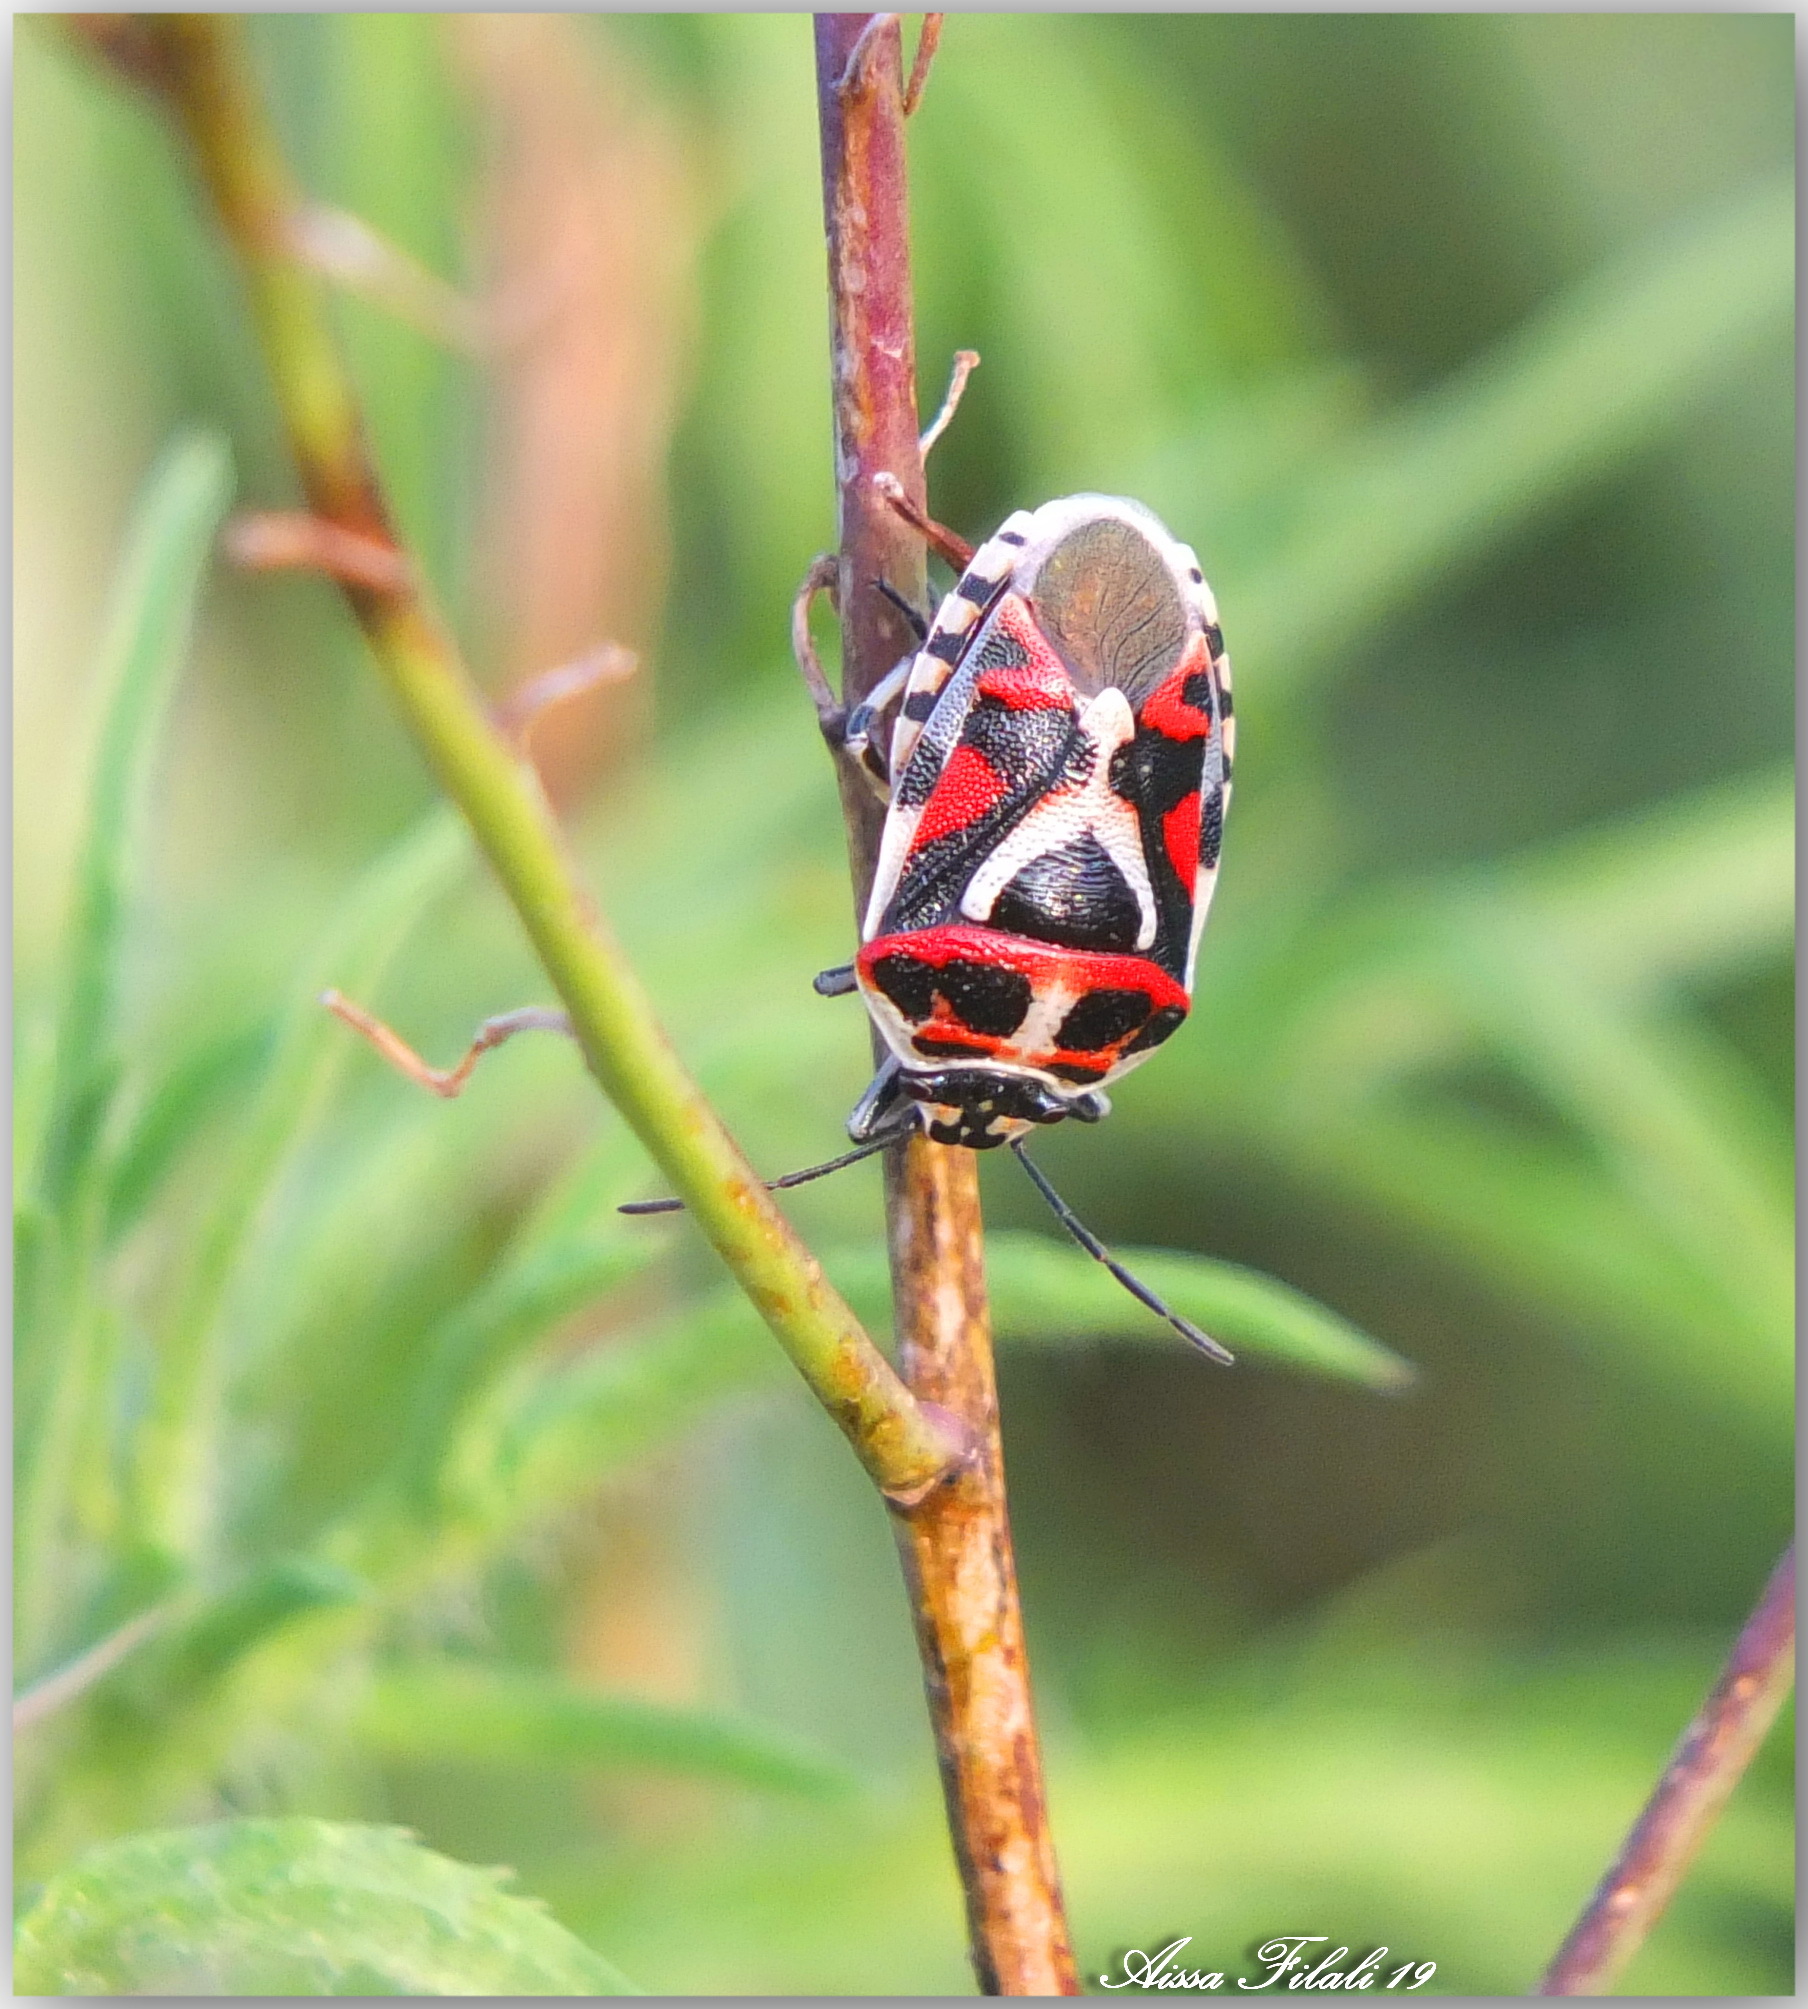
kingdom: Animalia
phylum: Arthropoda
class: Insecta
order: Hemiptera
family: Pentatomidae
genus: Eurydema
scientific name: Eurydema ornata
